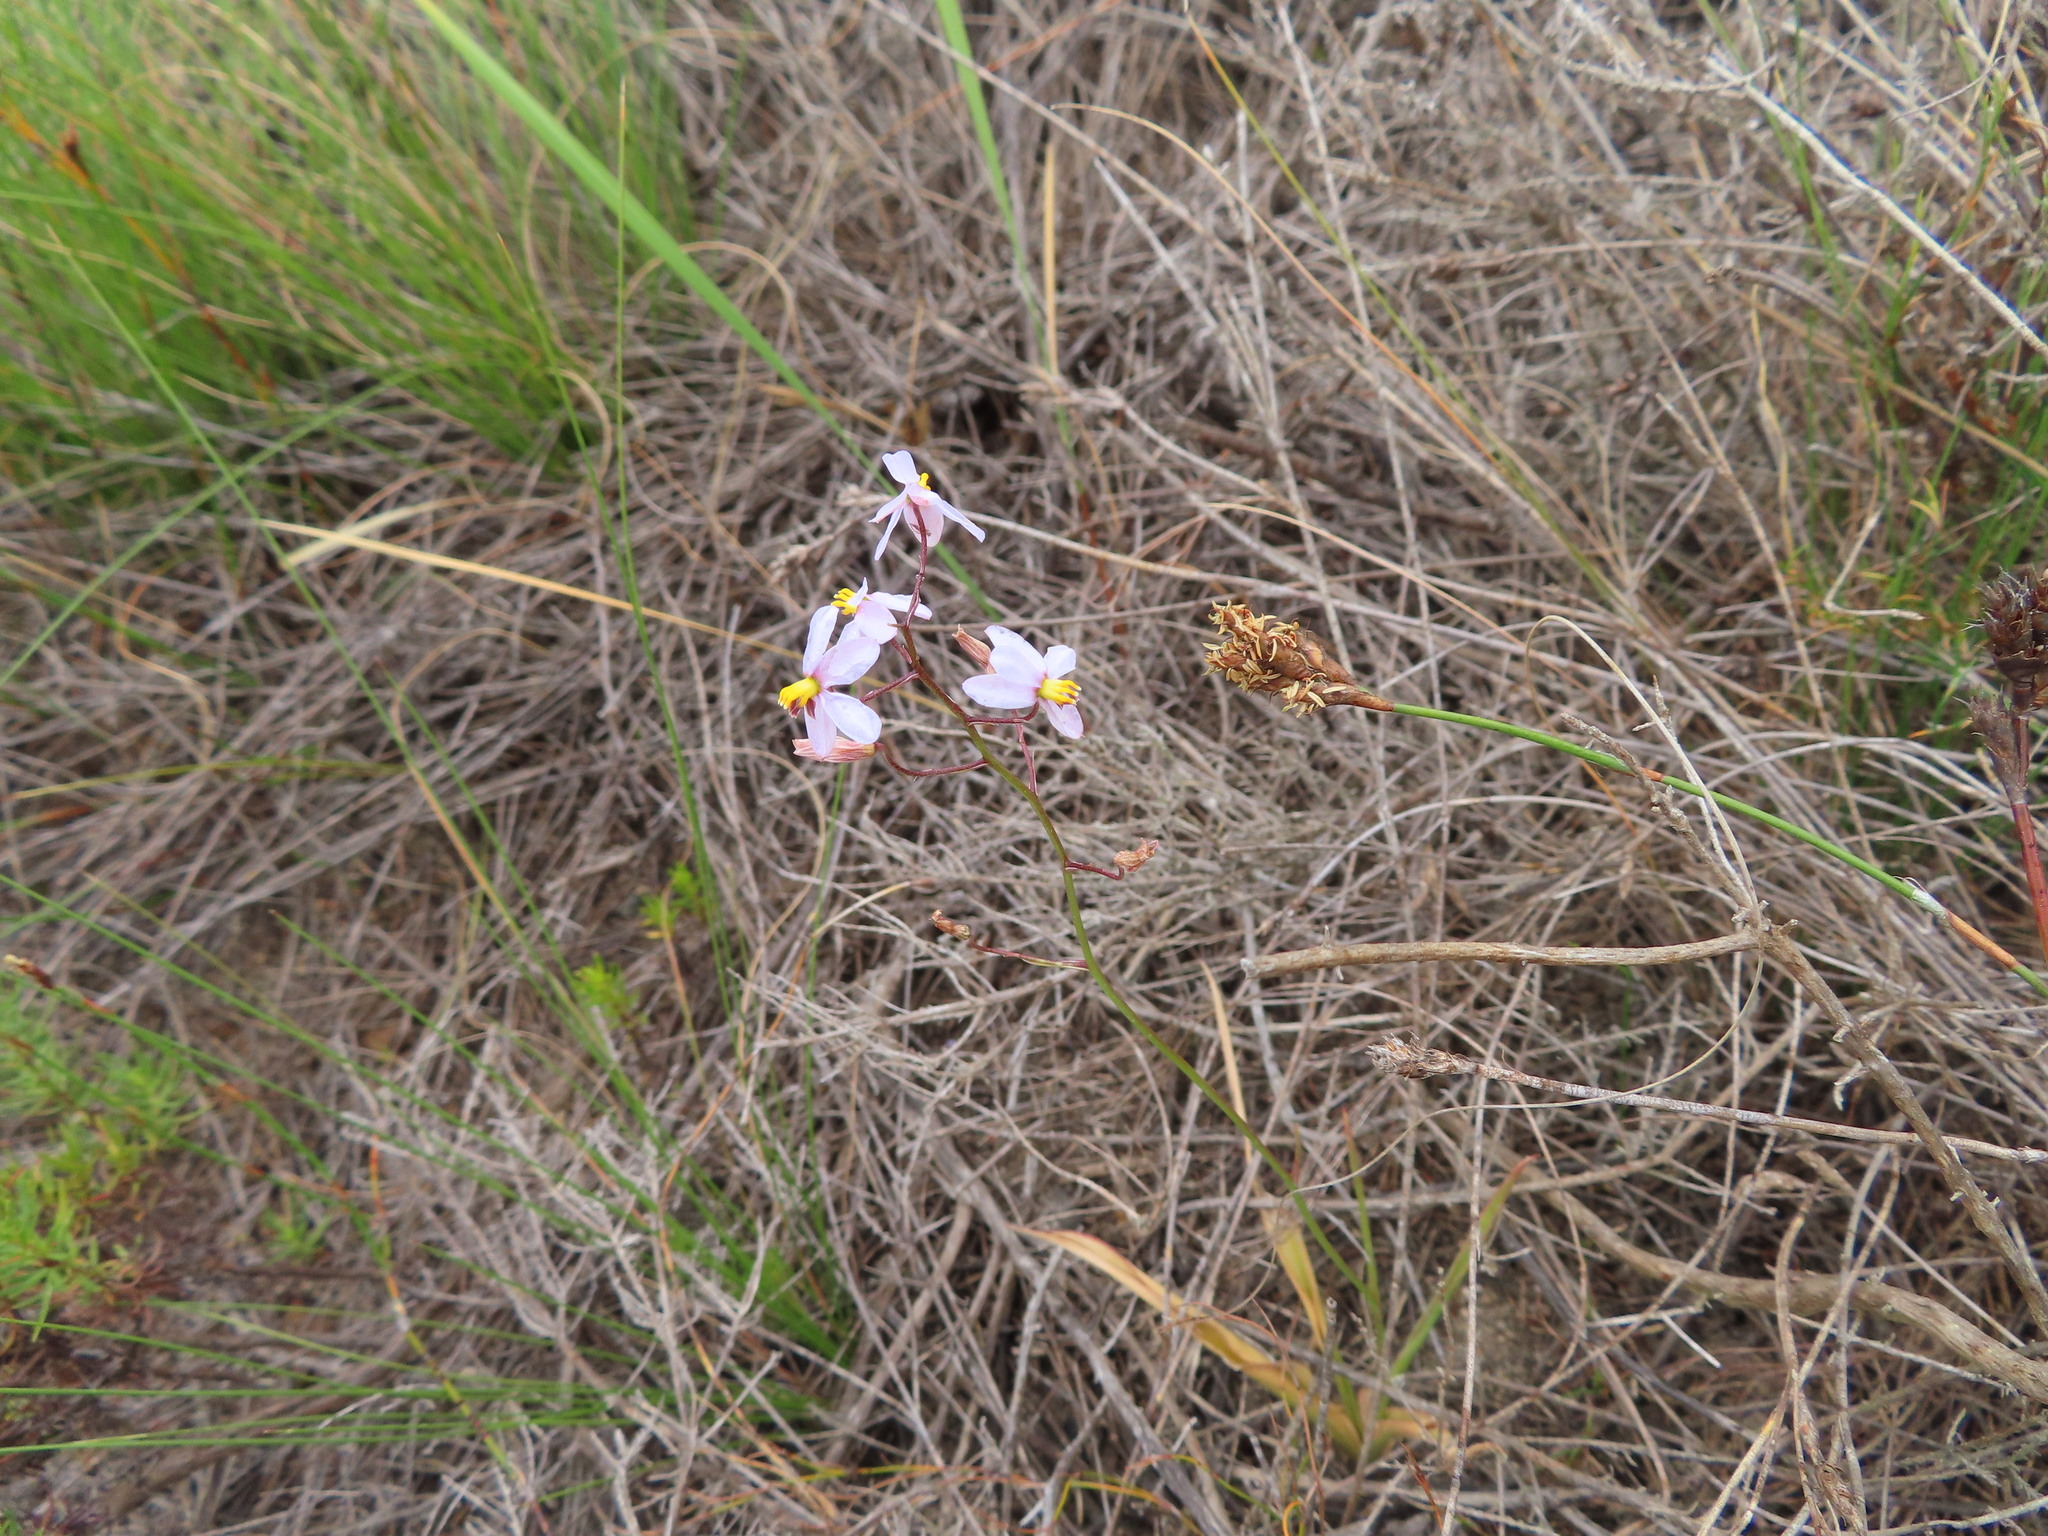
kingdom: Plantae
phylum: Tracheophyta
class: Liliopsida
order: Asparagales
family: Tecophilaeaceae
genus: Cyanella
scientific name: Cyanella hyacinthoides
